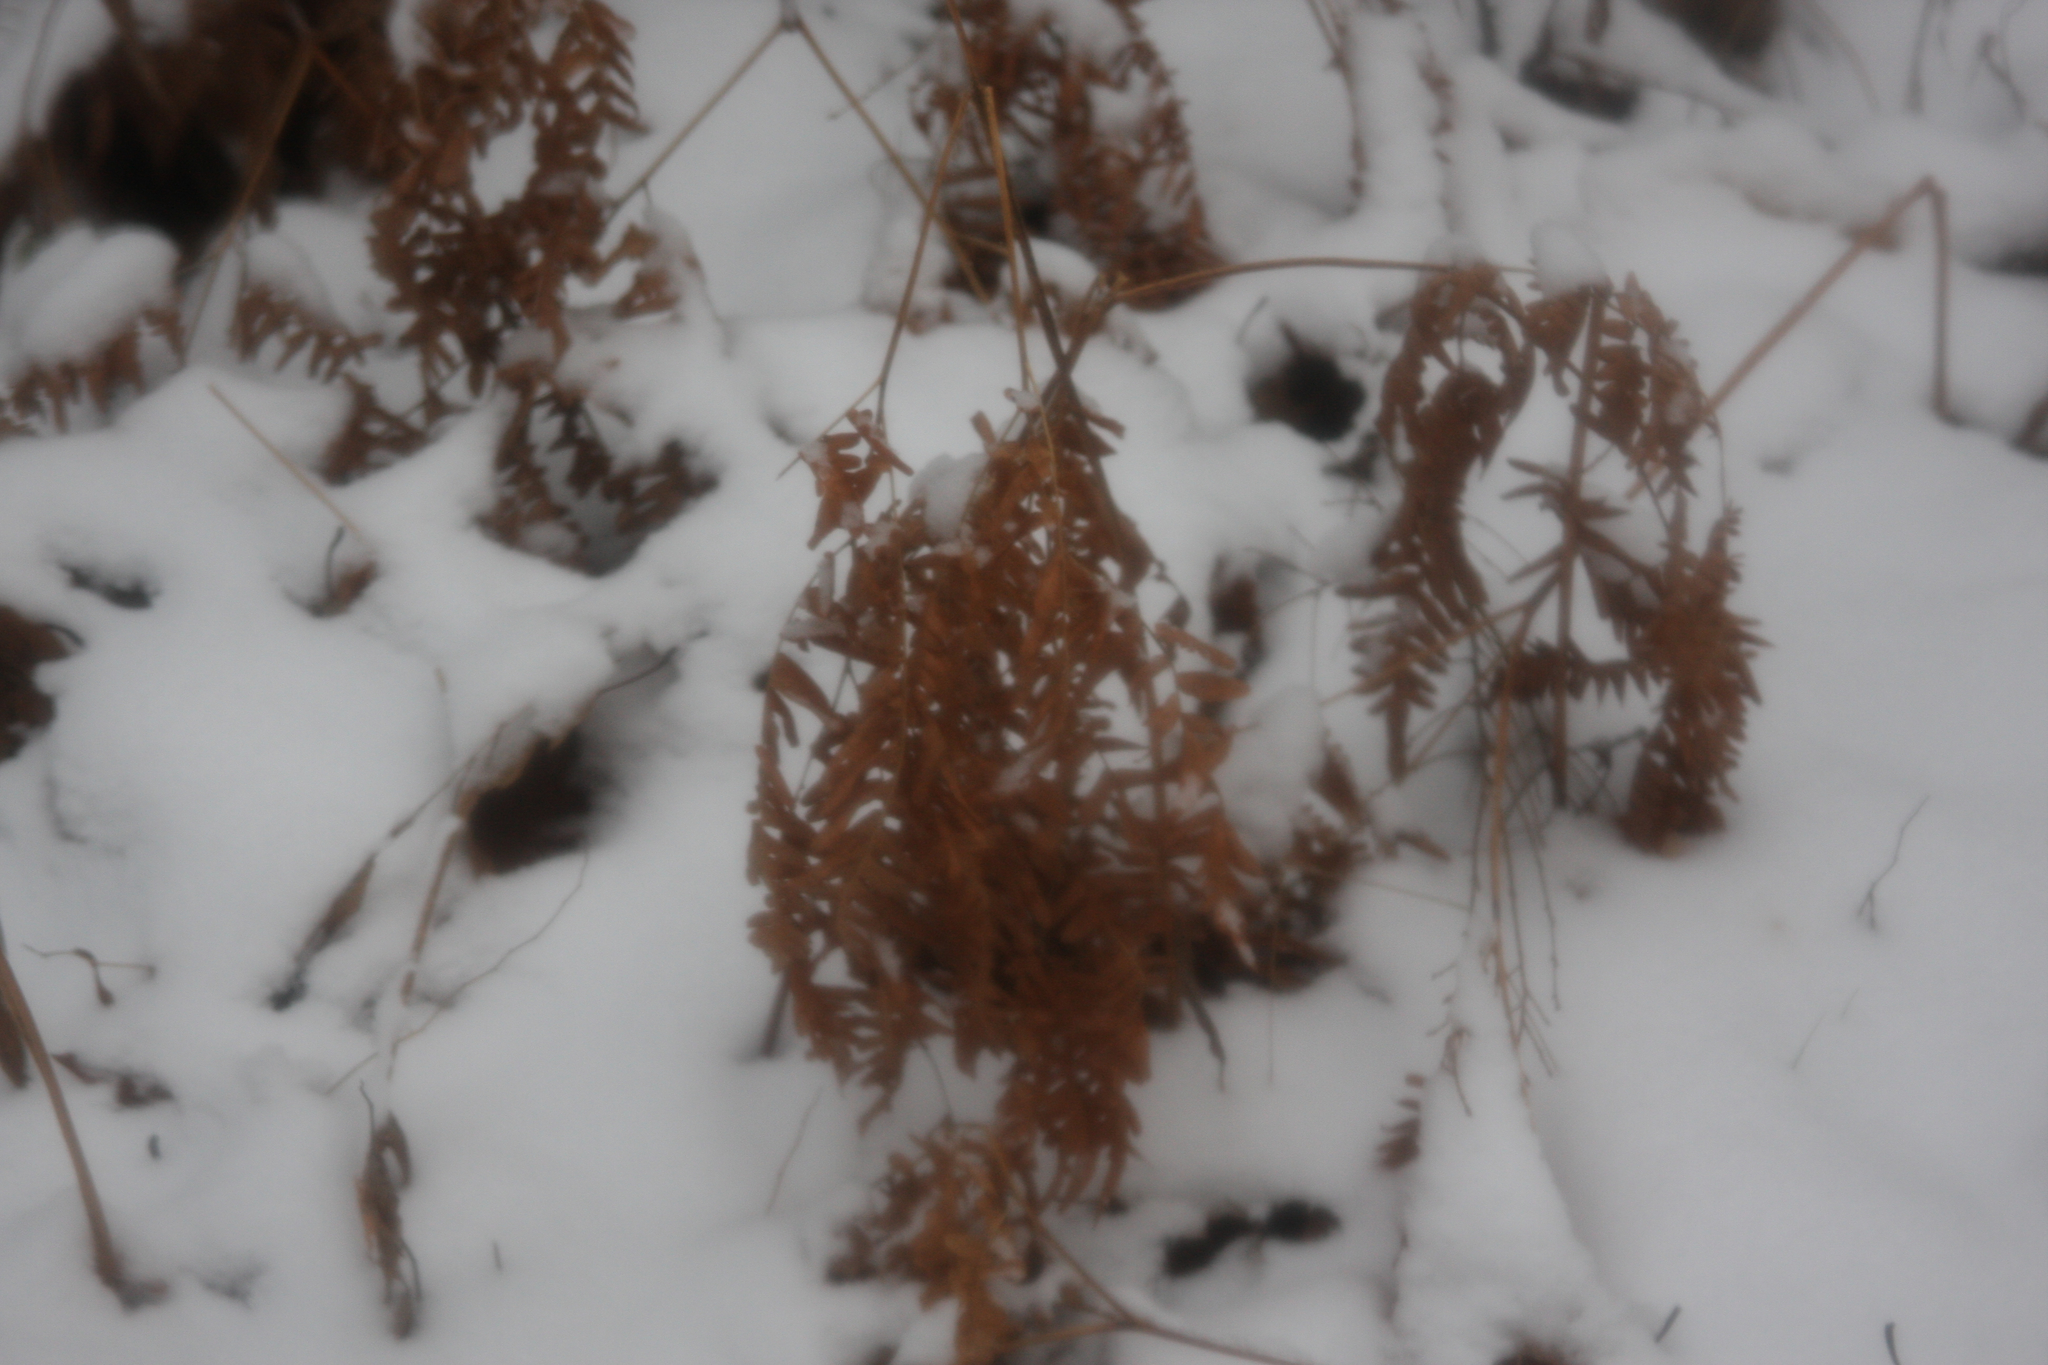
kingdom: Plantae
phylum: Tracheophyta
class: Polypodiopsida
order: Polypodiales
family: Dennstaedtiaceae
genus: Pteridium
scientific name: Pteridium aquilinum
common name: Bracken
